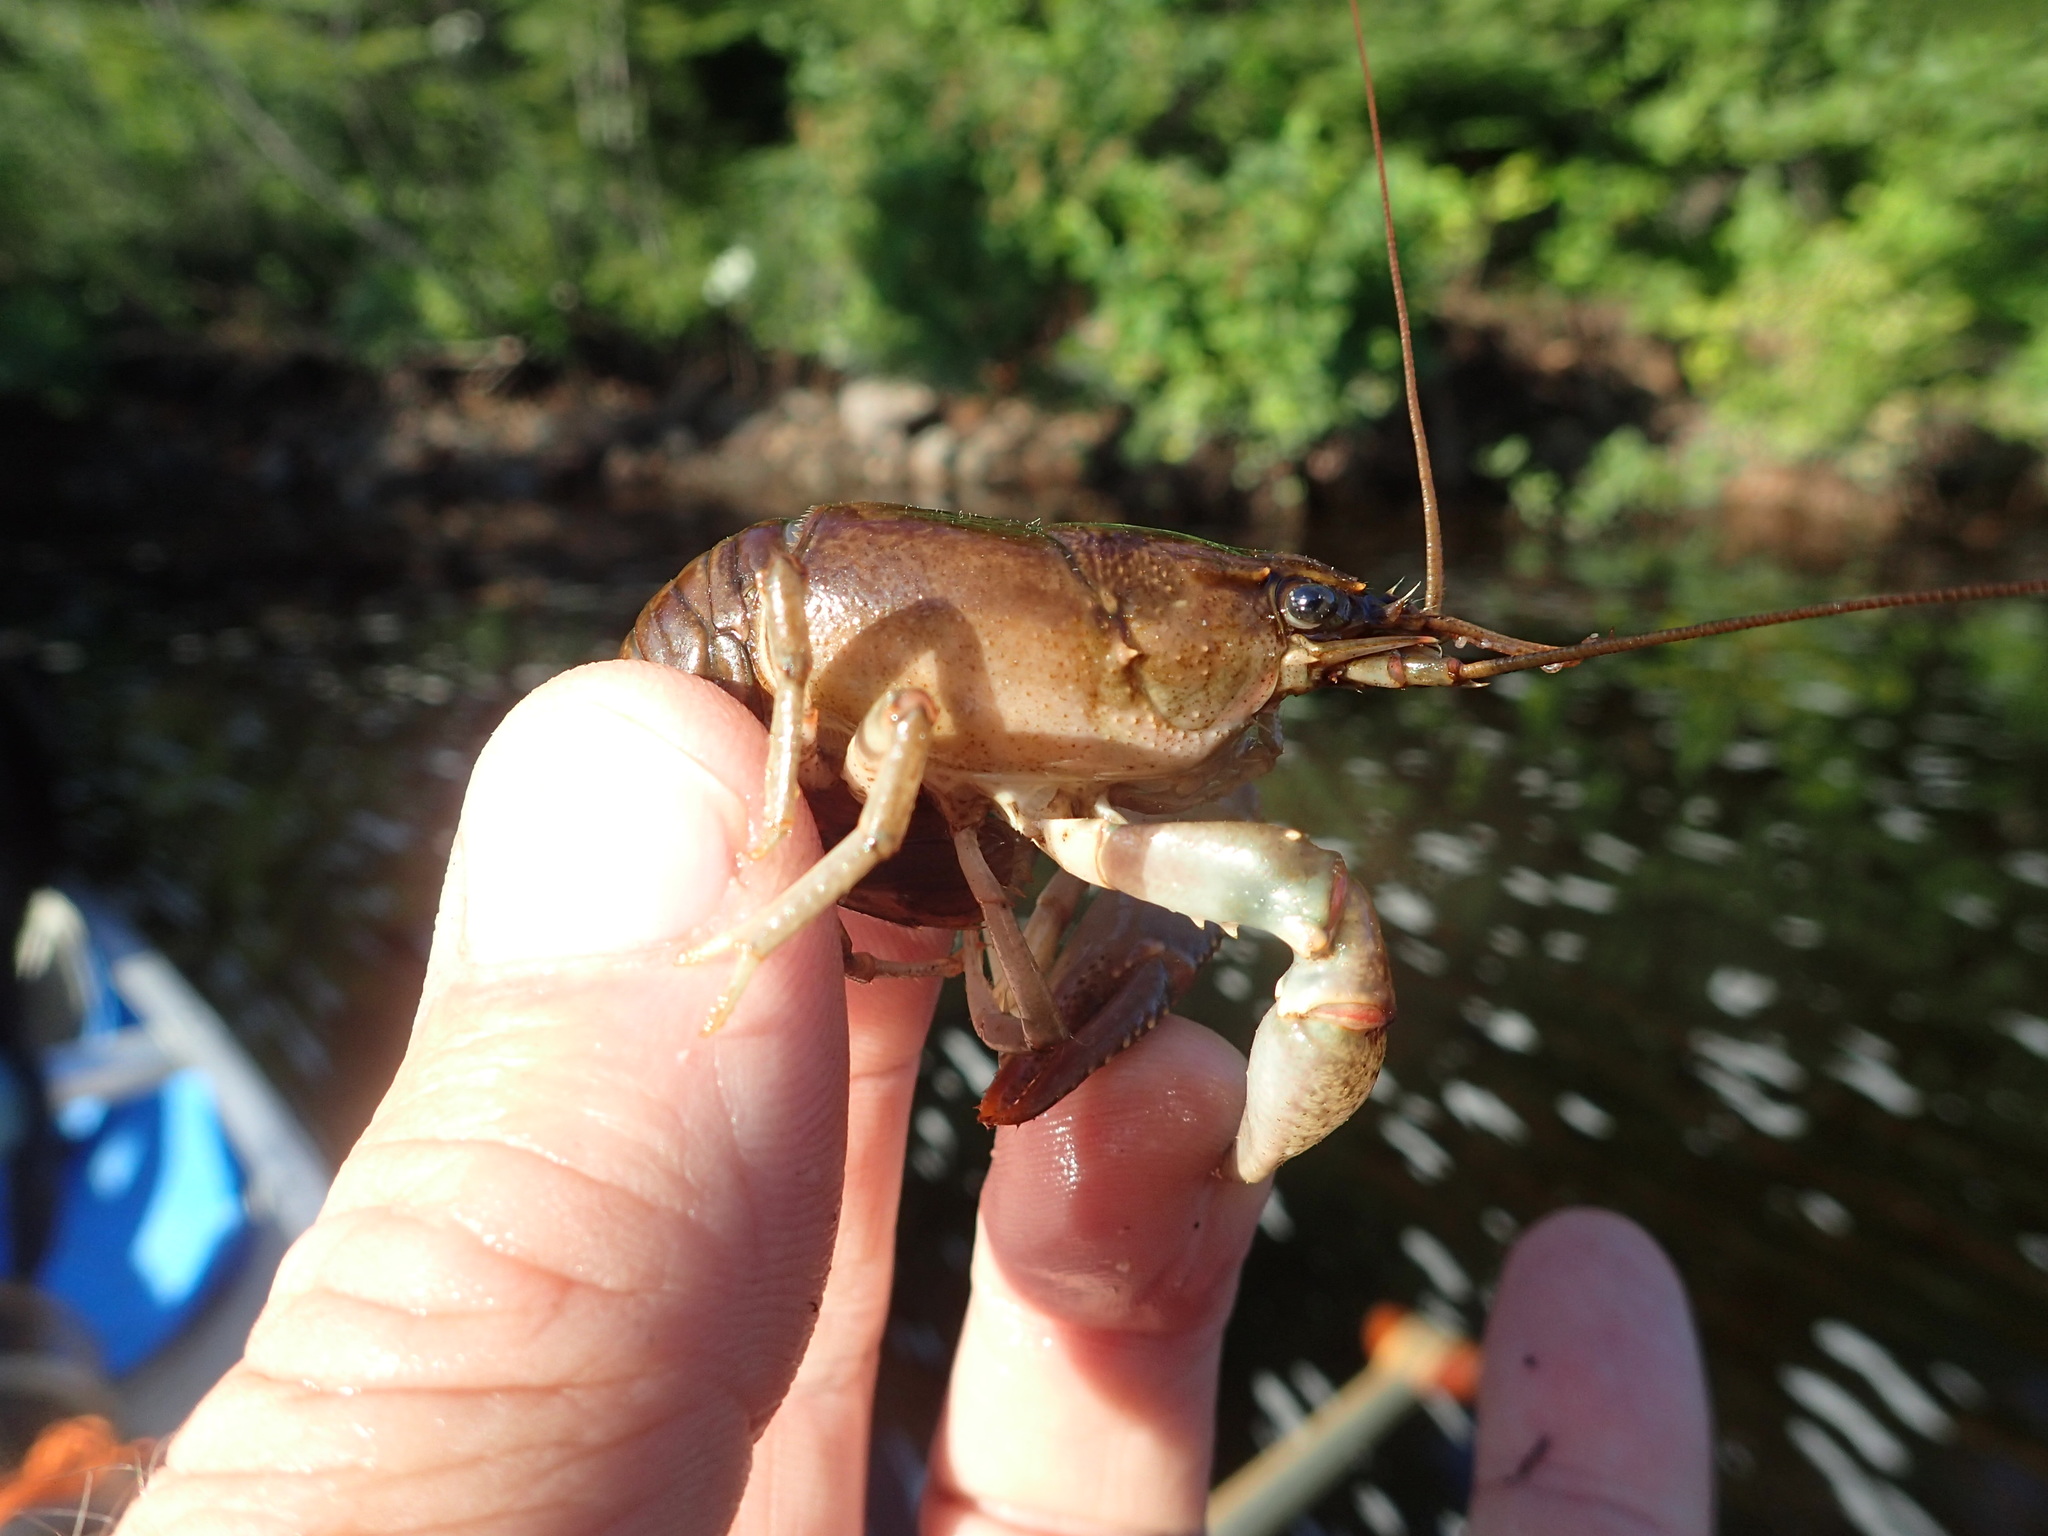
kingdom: Animalia
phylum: Arthropoda
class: Malacostraca
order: Decapoda
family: Cambaridae
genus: Faxonius
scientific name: Faxonius virilis
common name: Virile crayfish
